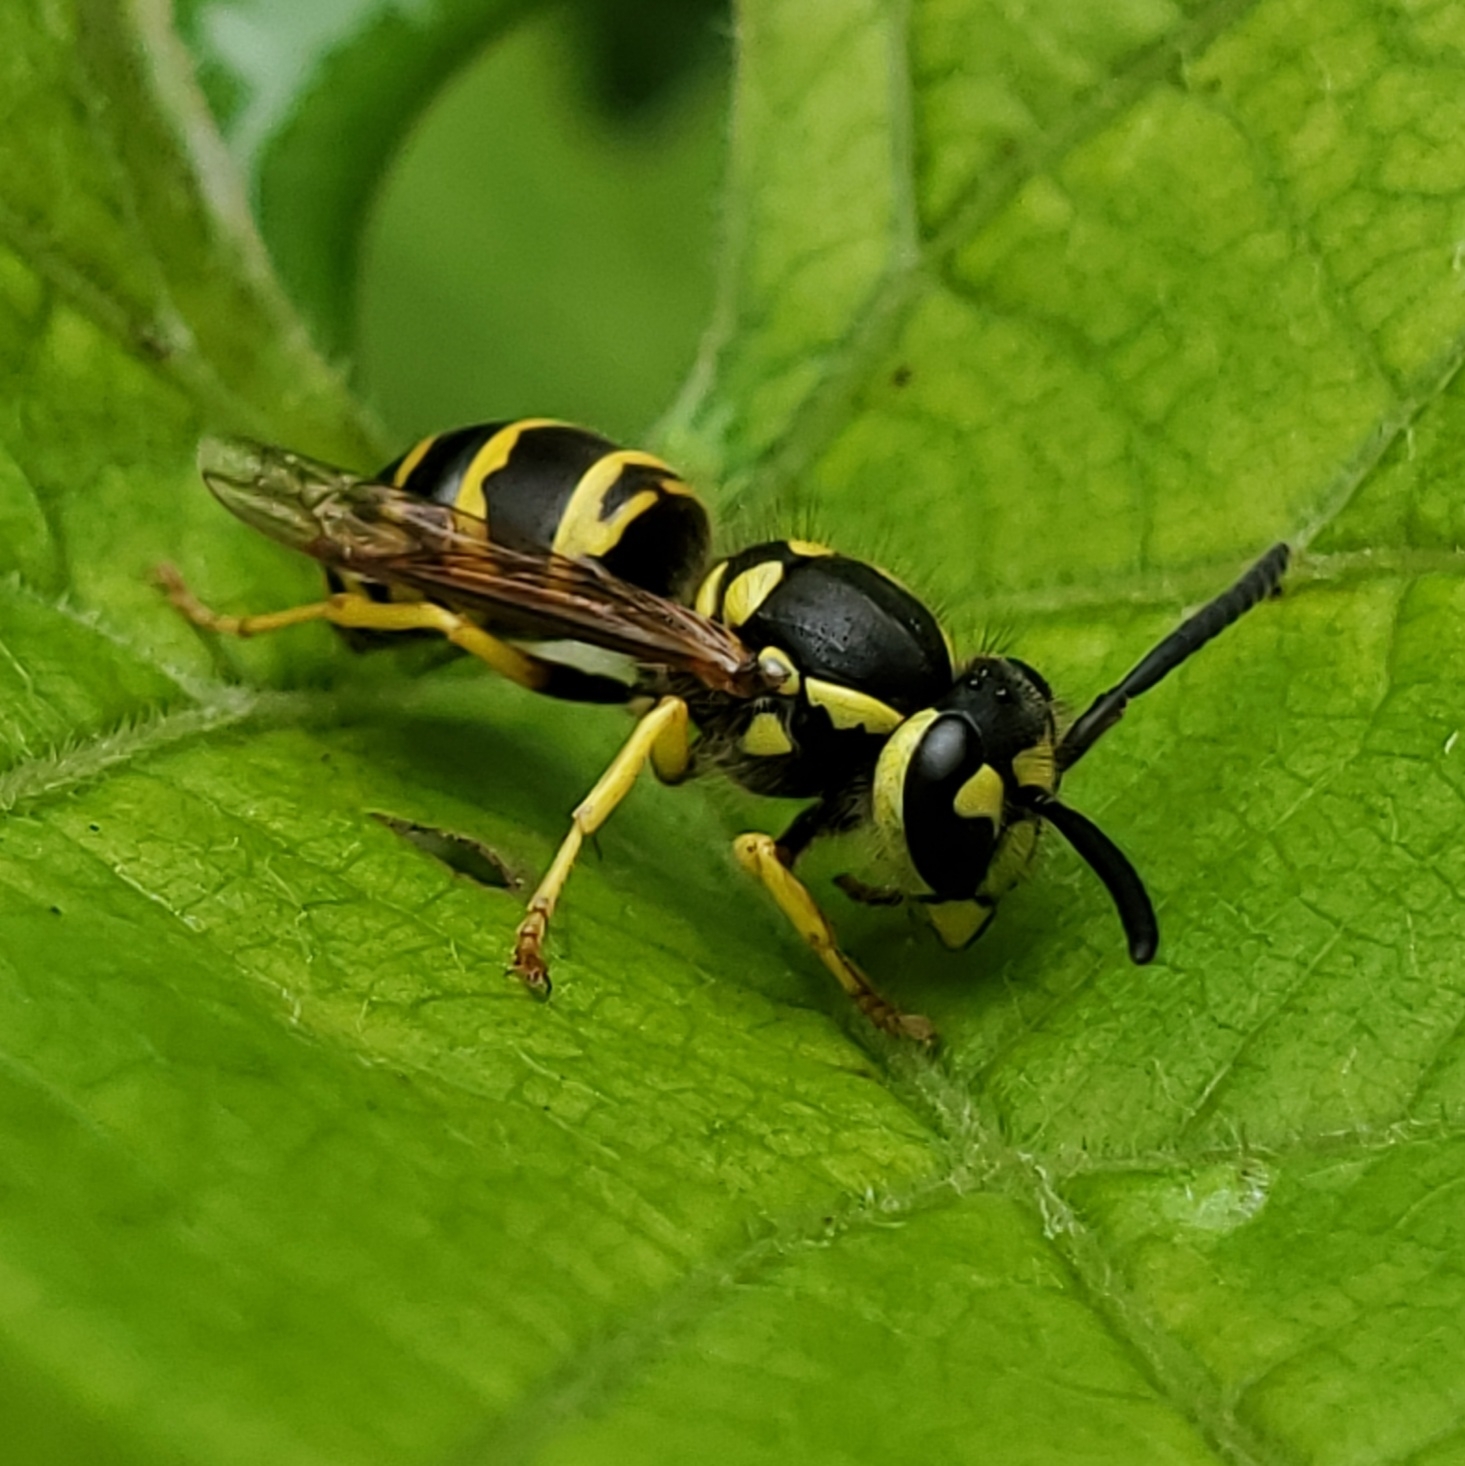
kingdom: Animalia
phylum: Arthropoda
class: Insecta
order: Hymenoptera
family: Vespidae
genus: Vespula
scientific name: Vespula maculifrons
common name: Eastern yellowjacket
